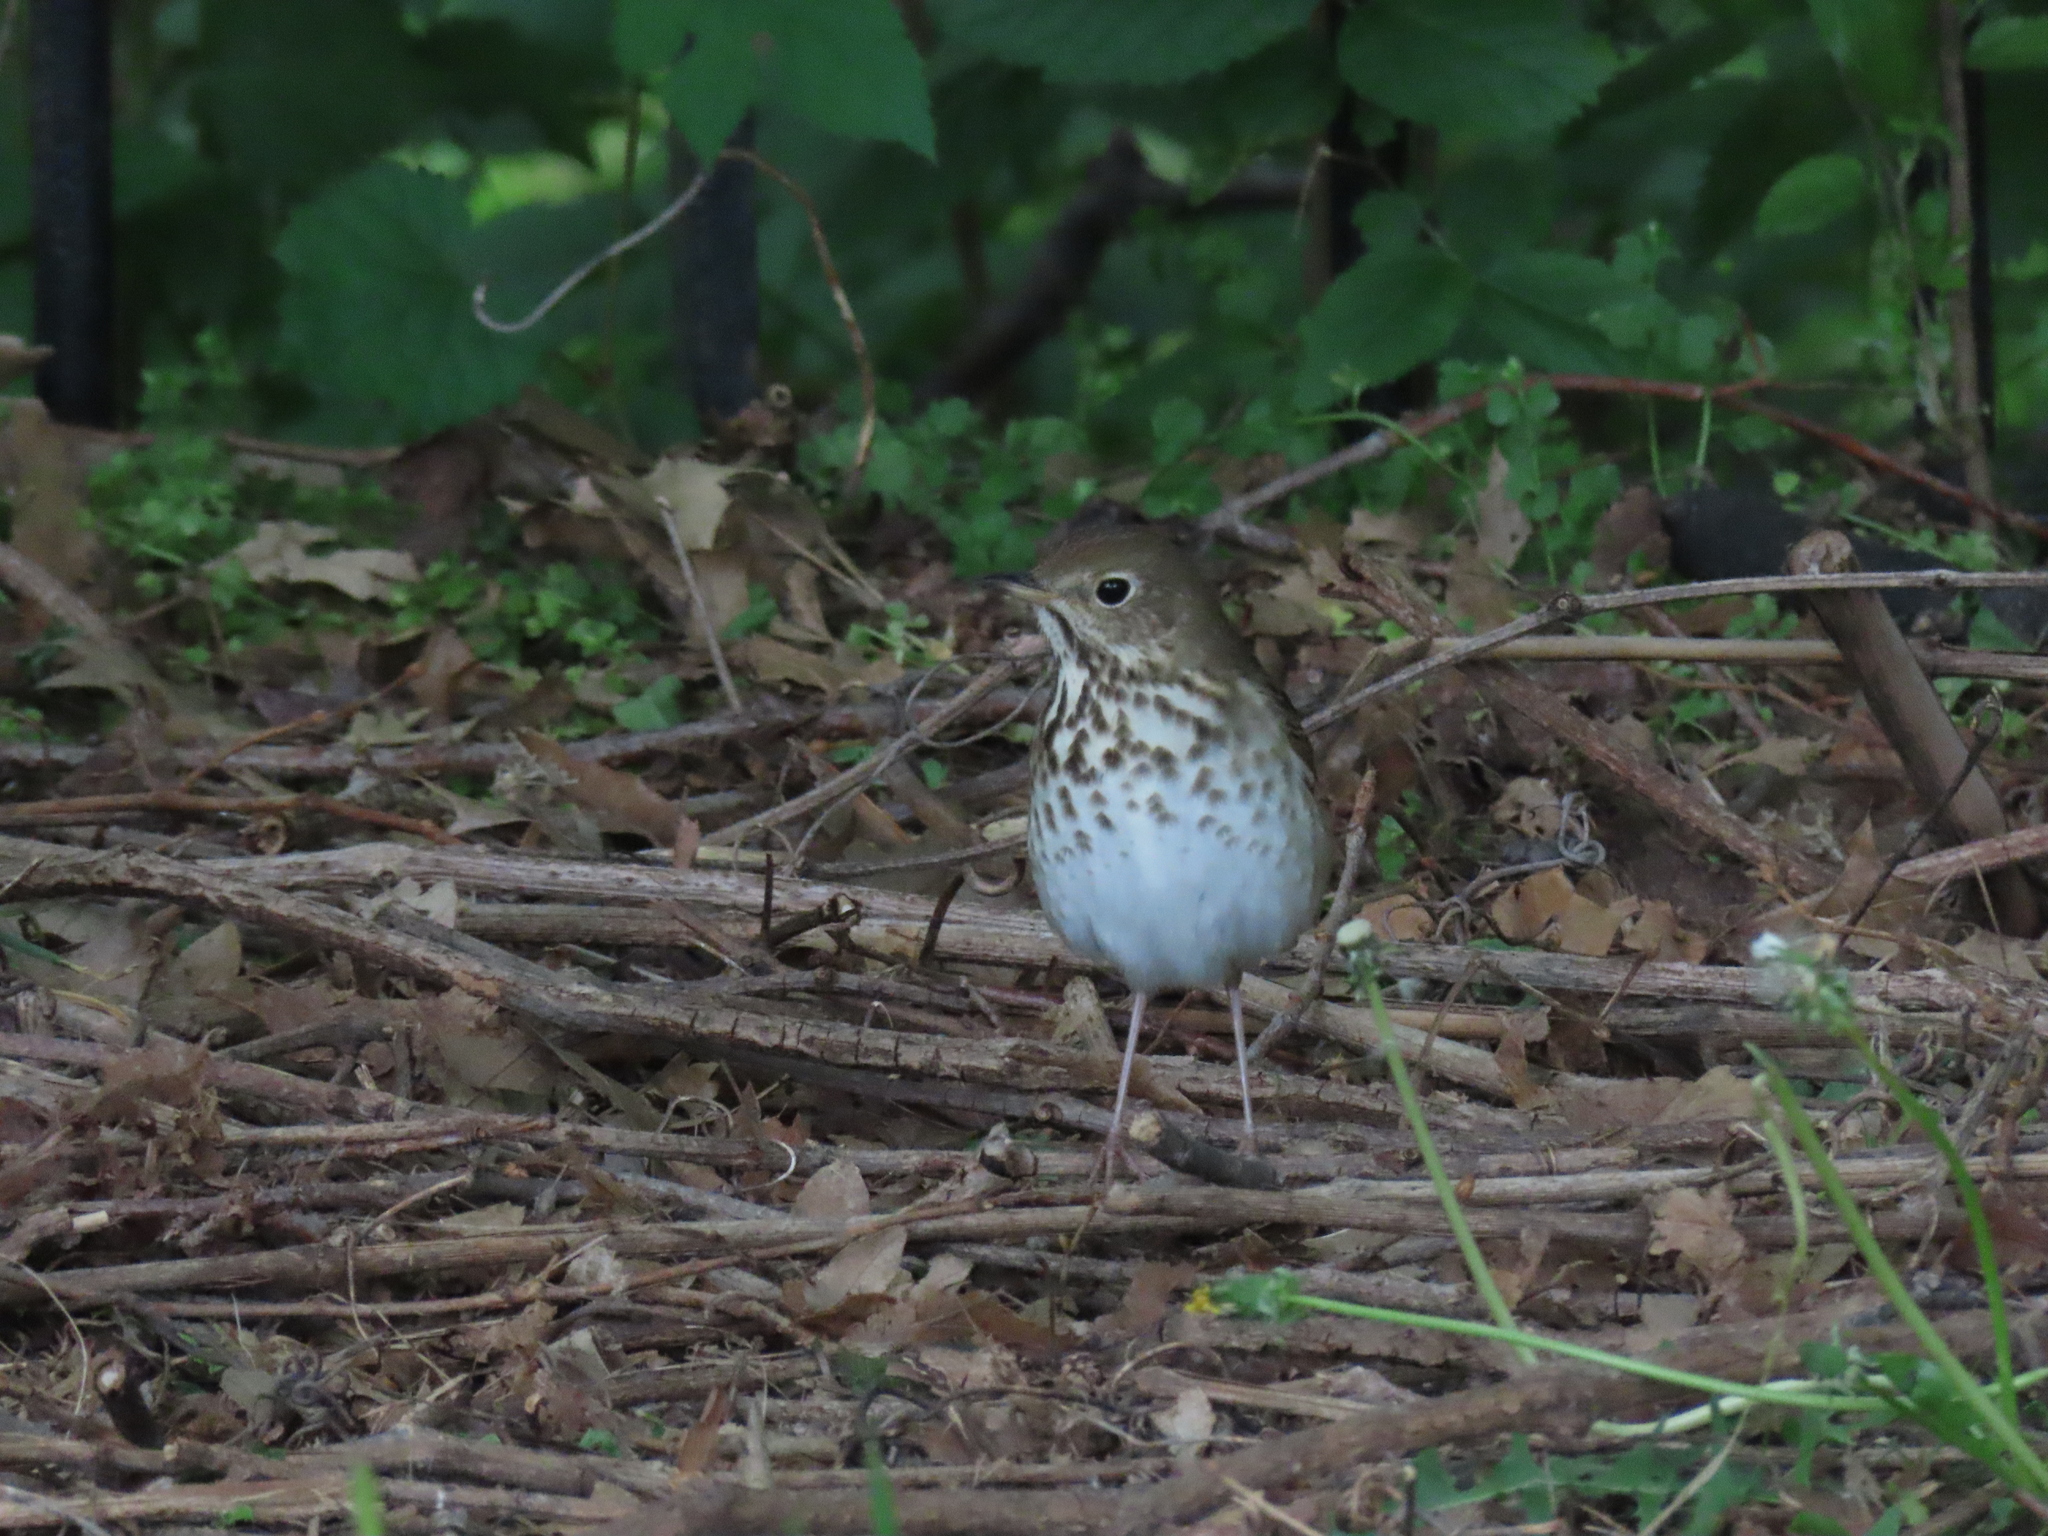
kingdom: Animalia
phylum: Chordata
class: Aves
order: Passeriformes
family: Turdidae
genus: Catharus
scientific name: Catharus guttatus
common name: Hermit thrush
